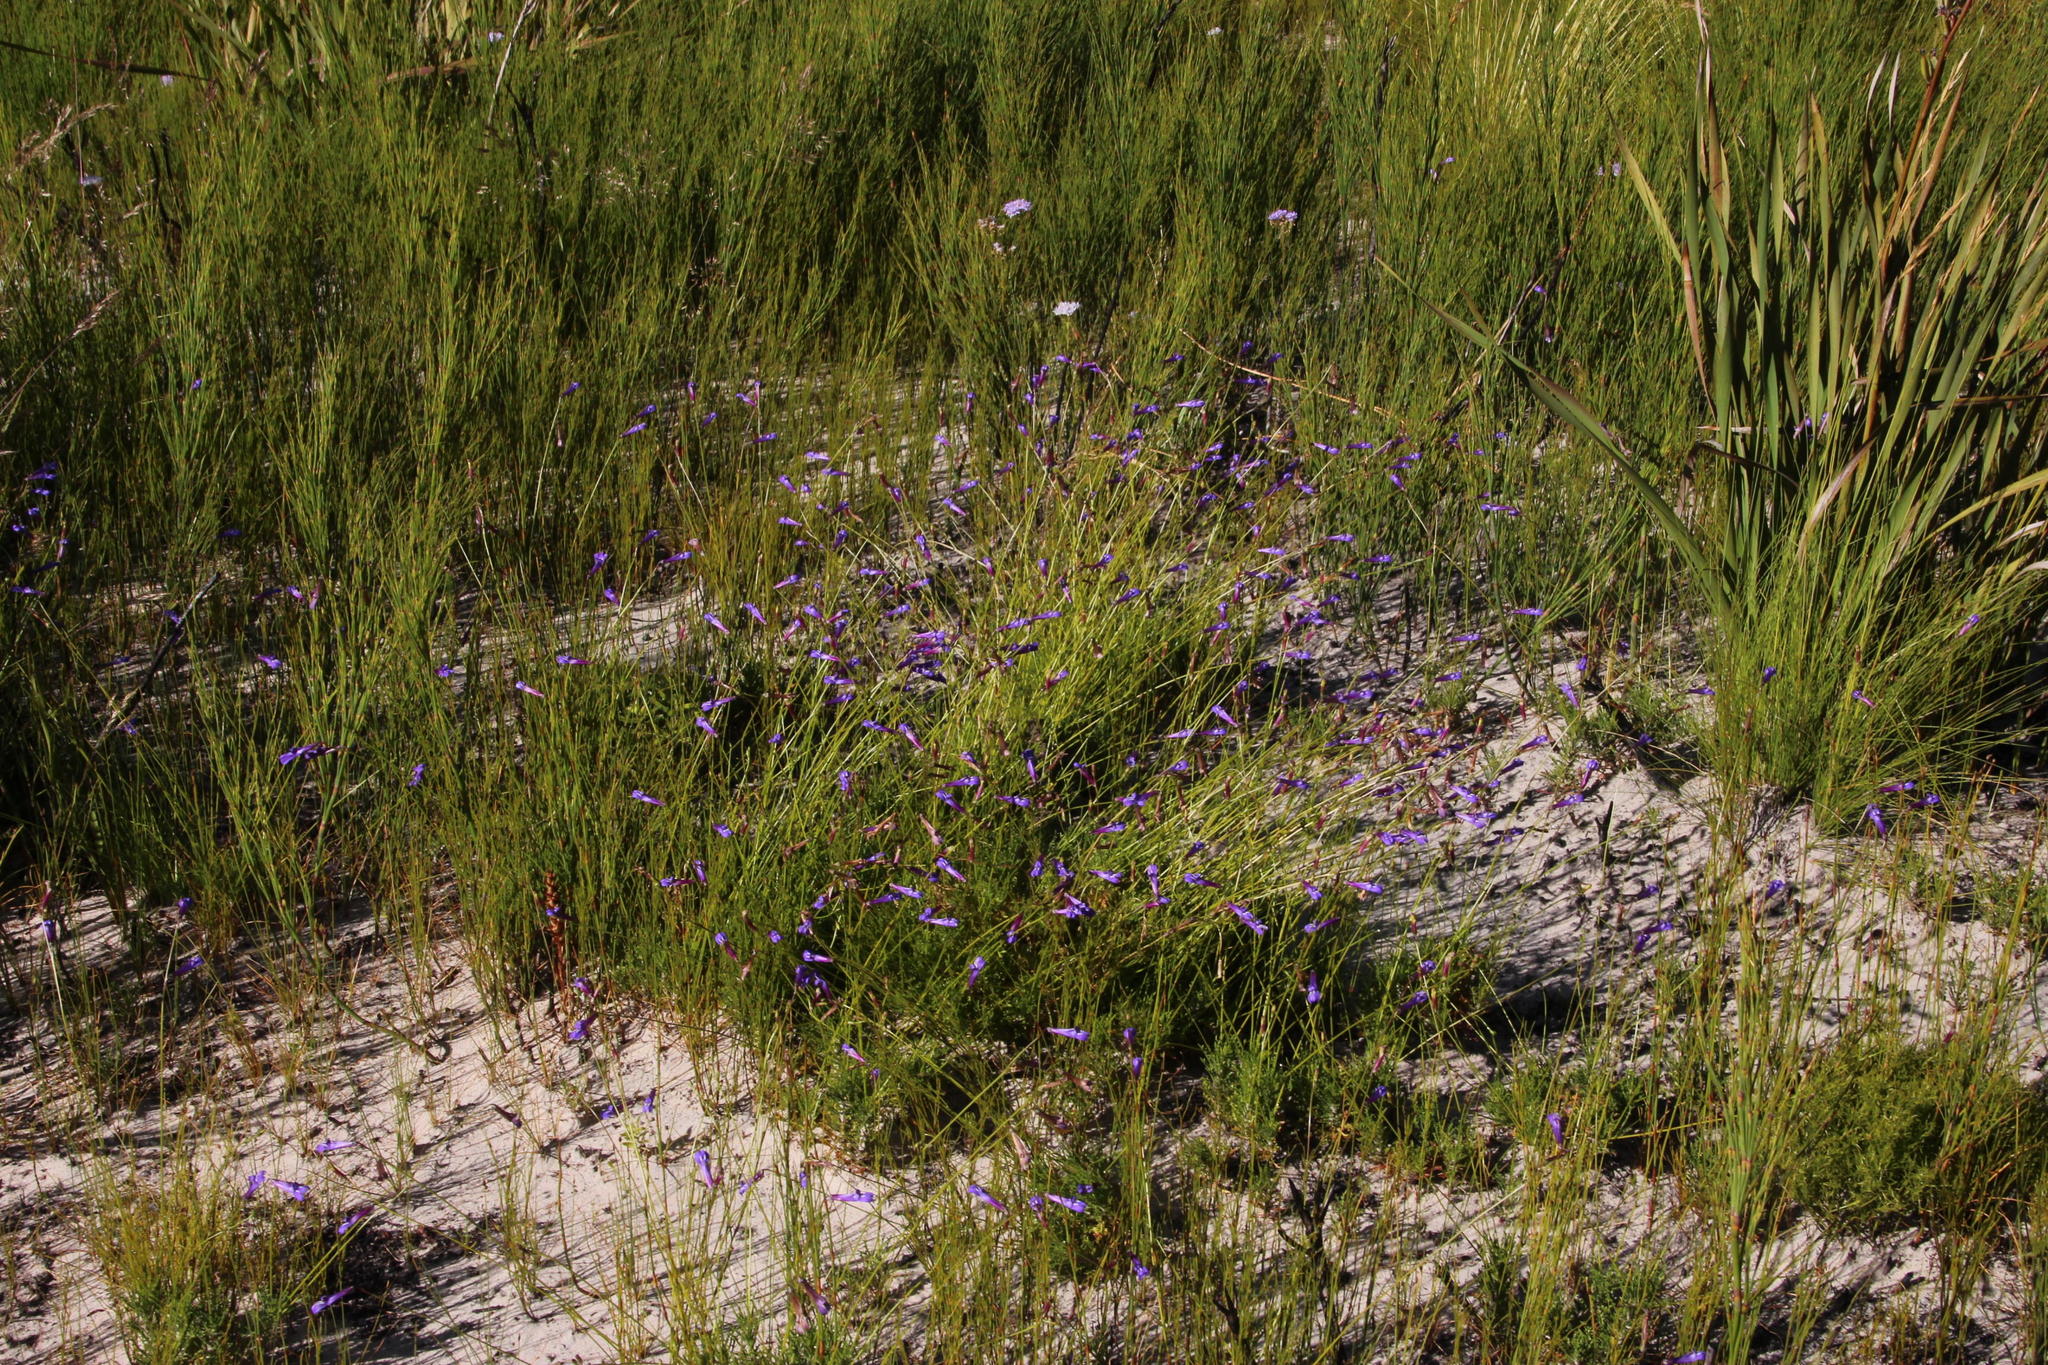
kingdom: Plantae
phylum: Tracheophyta
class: Magnoliopsida
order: Asterales
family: Campanulaceae
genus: Lobelia
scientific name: Lobelia coronopifolia
